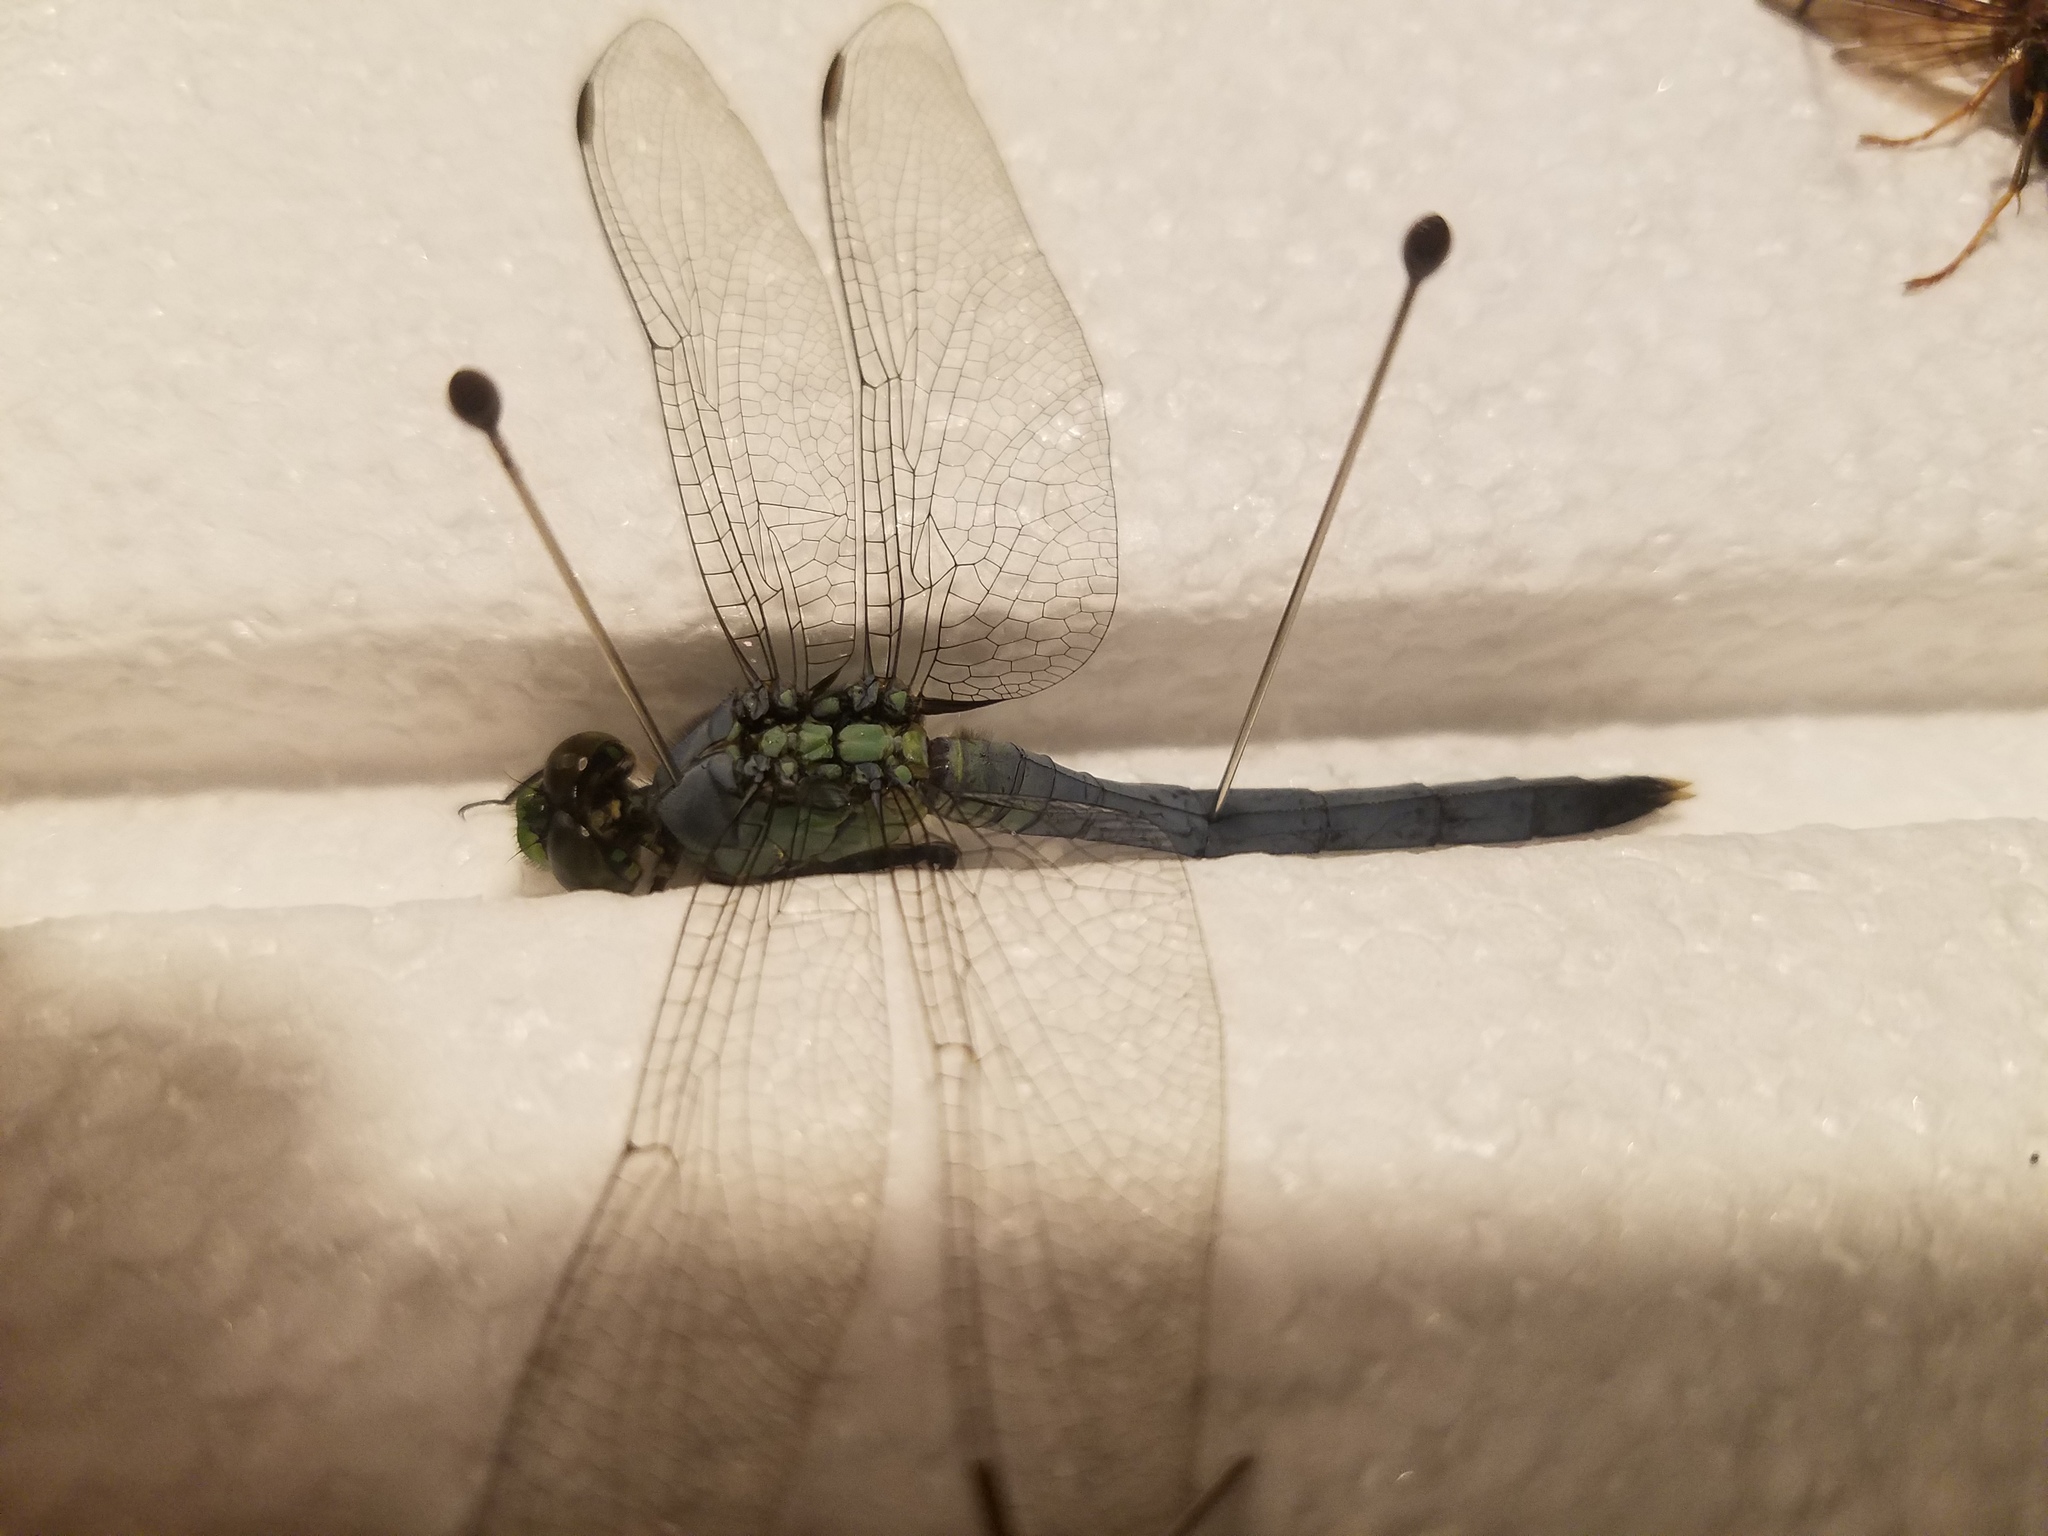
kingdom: Animalia
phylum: Arthropoda
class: Insecta
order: Odonata
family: Libellulidae
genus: Erythemis
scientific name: Erythemis simplicicollis
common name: Eastern pondhawk
